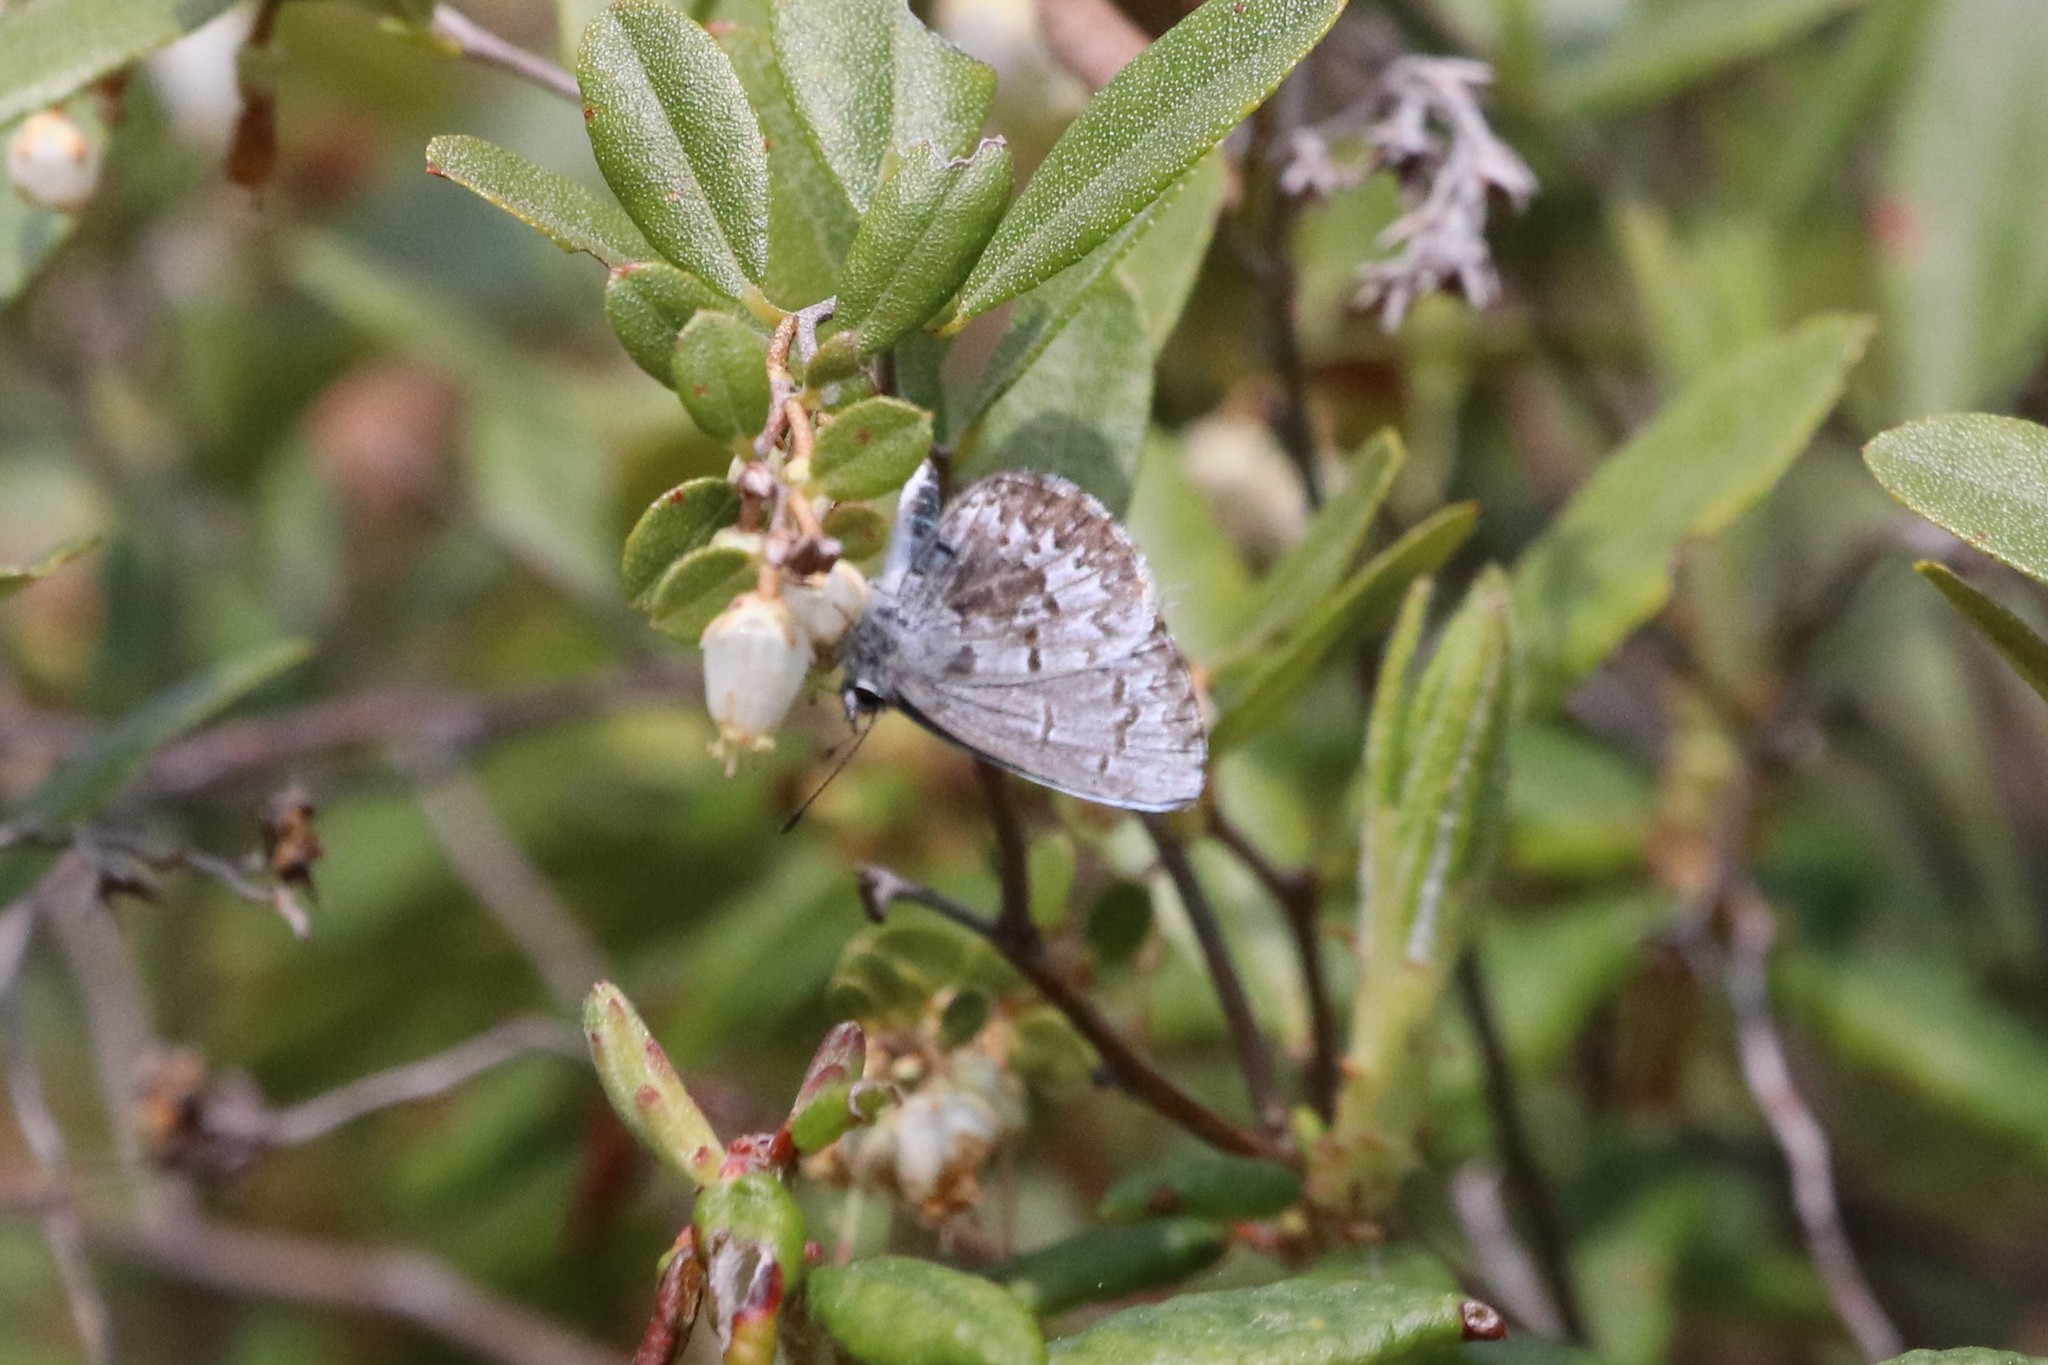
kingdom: Animalia
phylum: Arthropoda
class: Insecta
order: Lepidoptera
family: Lycaenidae
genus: Celastrina
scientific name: Celastrina lucia
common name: Lucia azure
